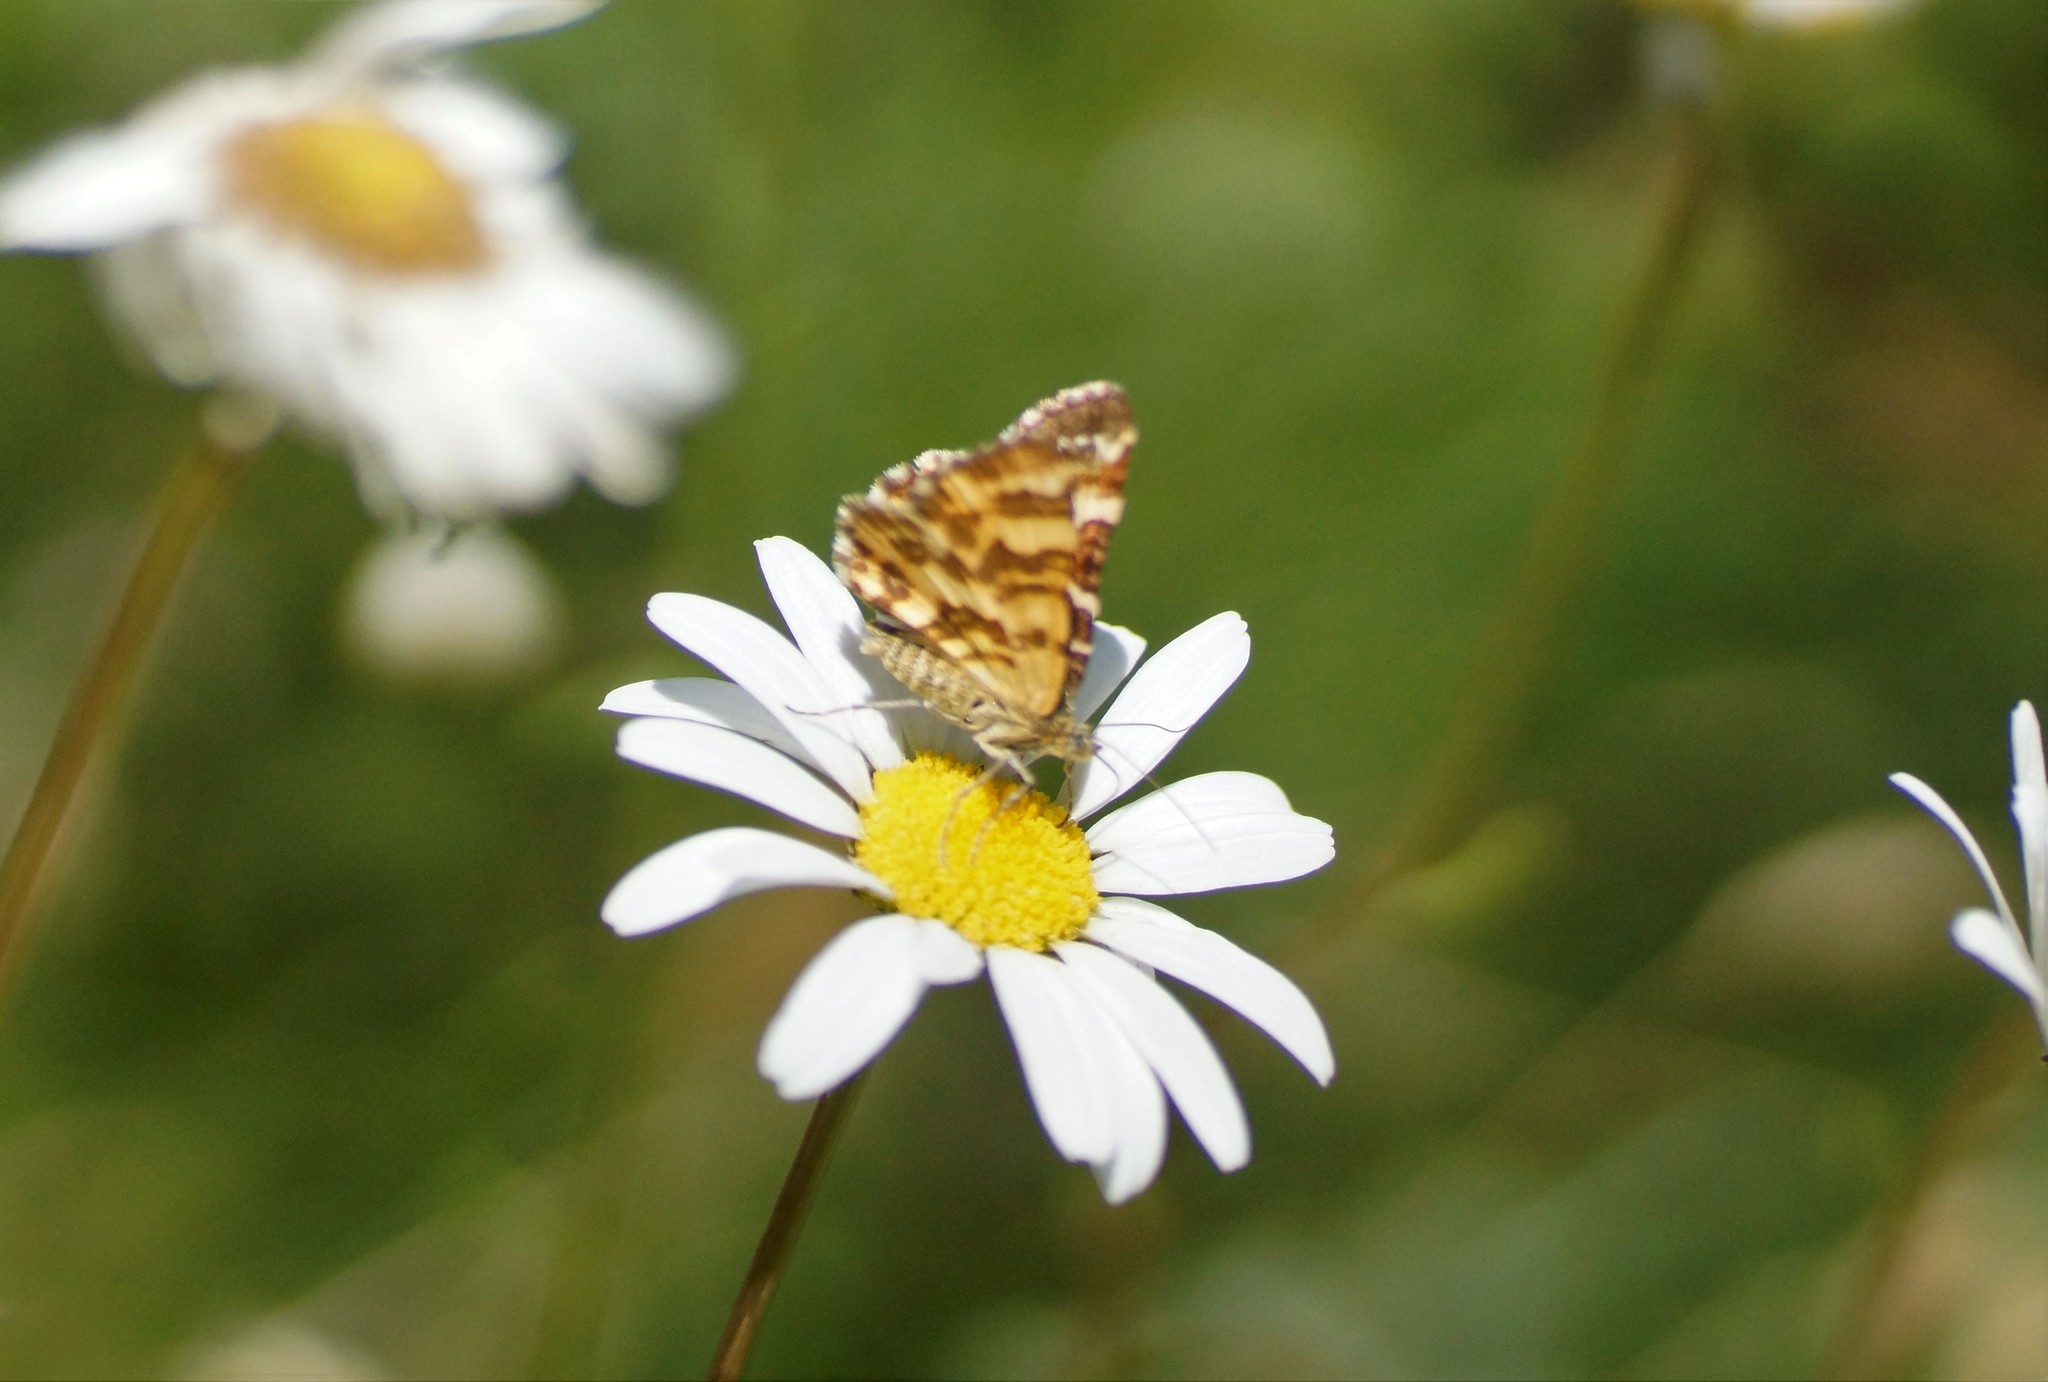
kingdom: Animalia
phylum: Arthropoda
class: Insecta
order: Lepidoptera
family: Geometridae
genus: Chrysolarentia
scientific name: Chrysolarentia polycarpa
